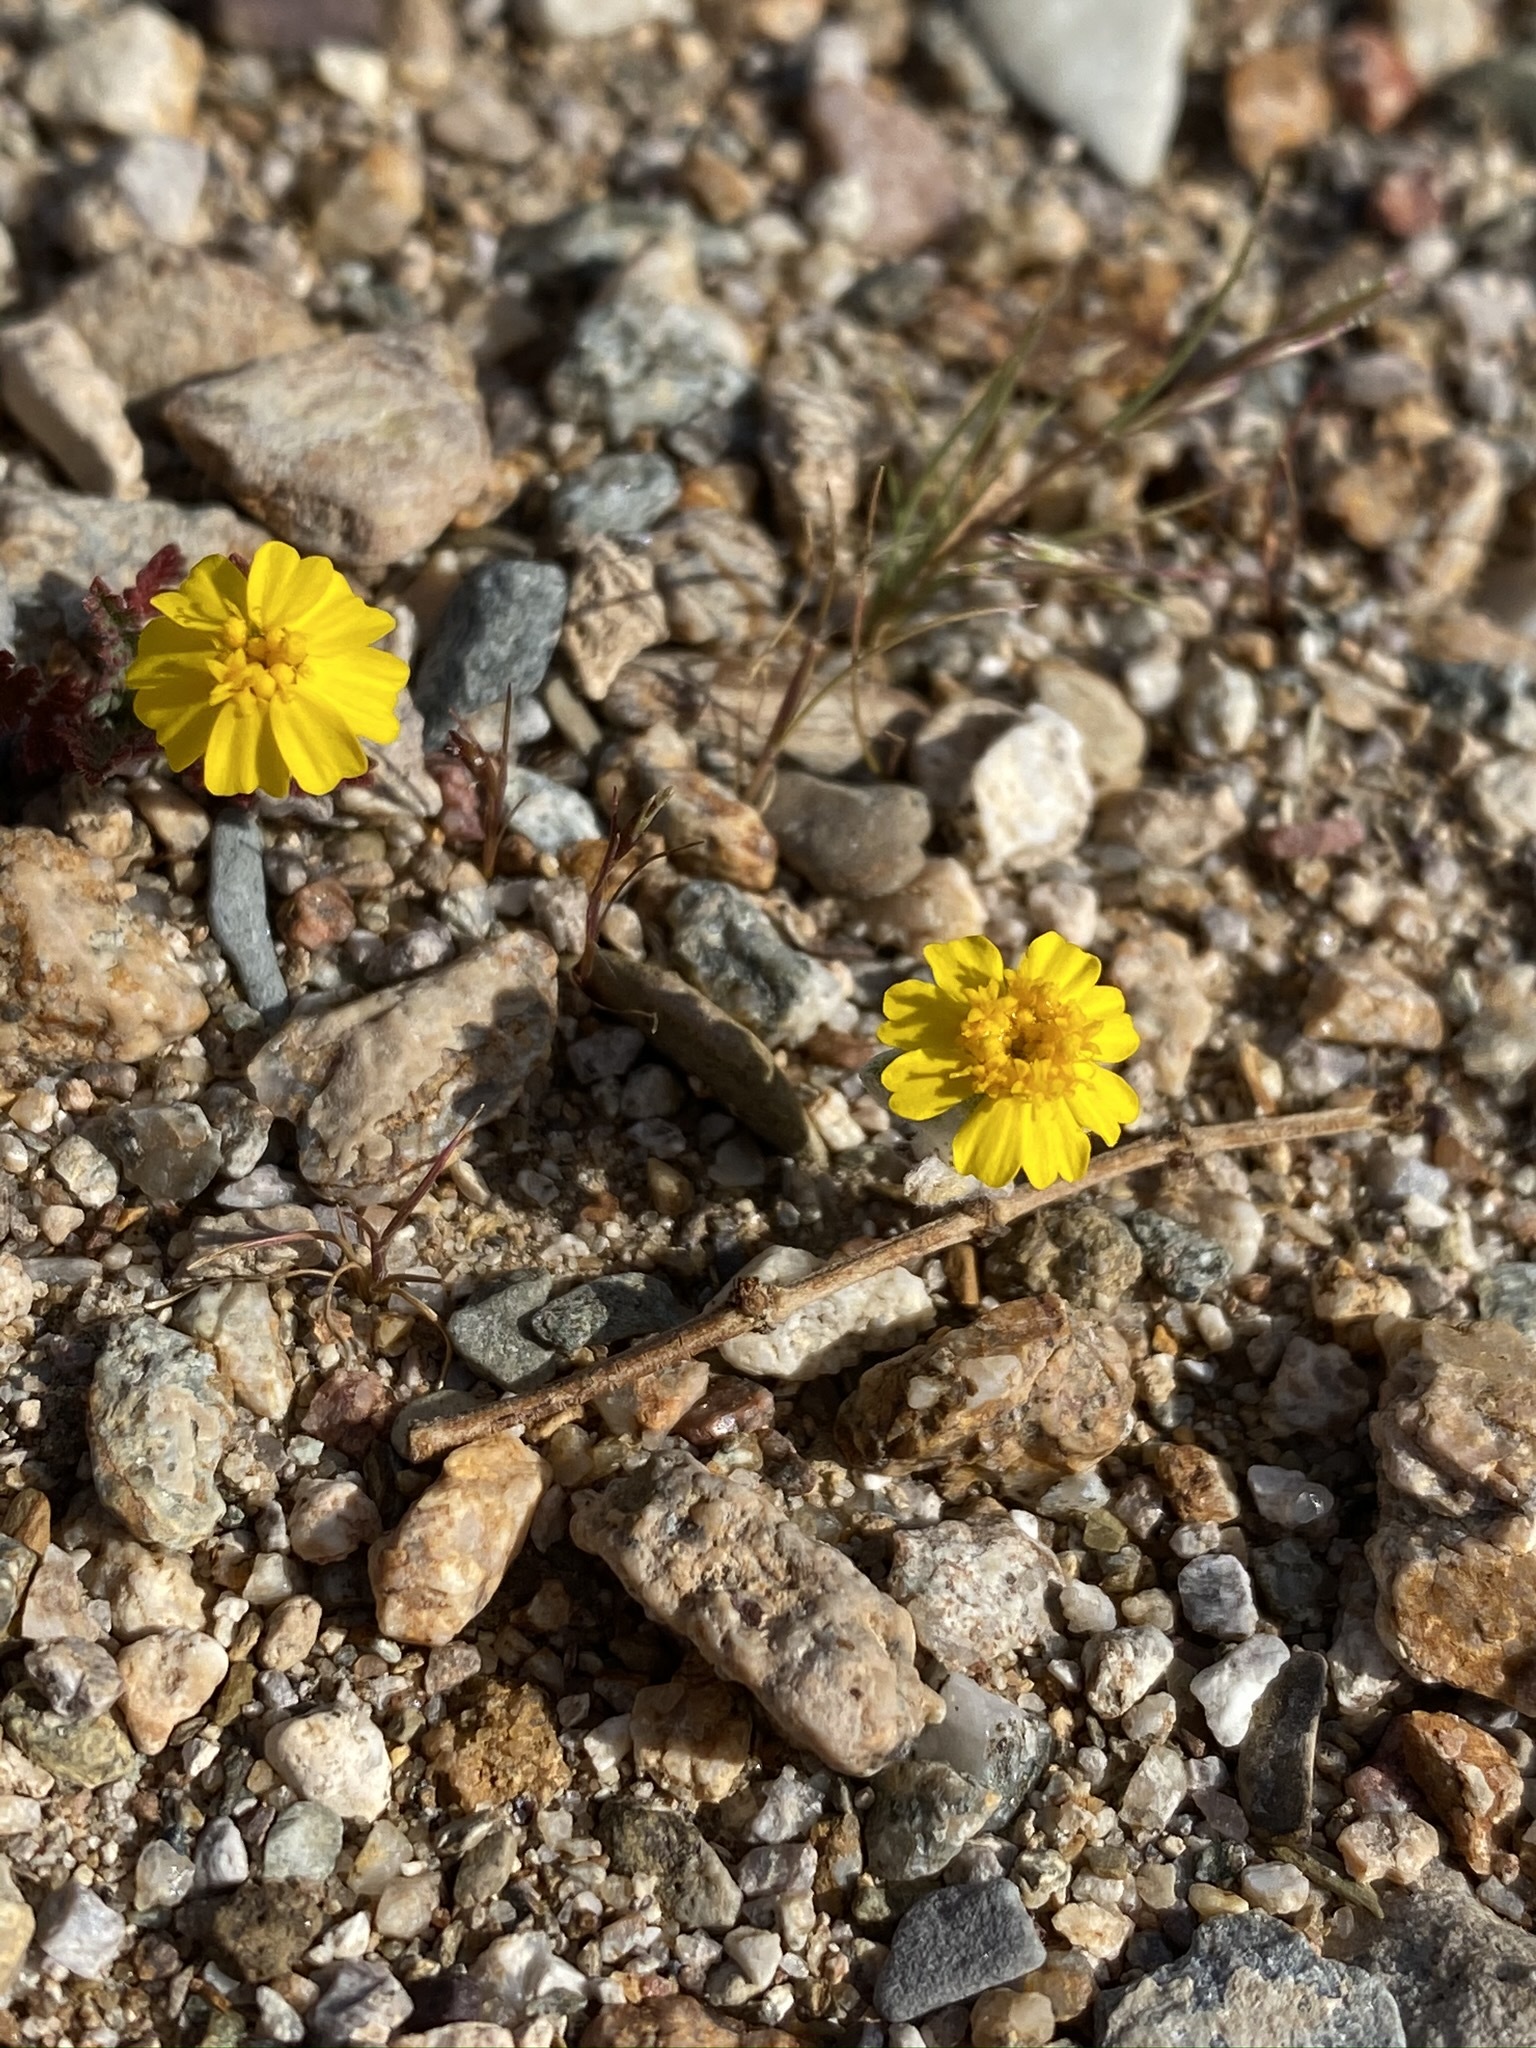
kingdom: Plantae
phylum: Tracheophyta
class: Magnoliopsida
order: Asterales
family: Asteraceae
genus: Eriophyllum
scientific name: Eriophyllum wallacei
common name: Wallace's woolly daisy
